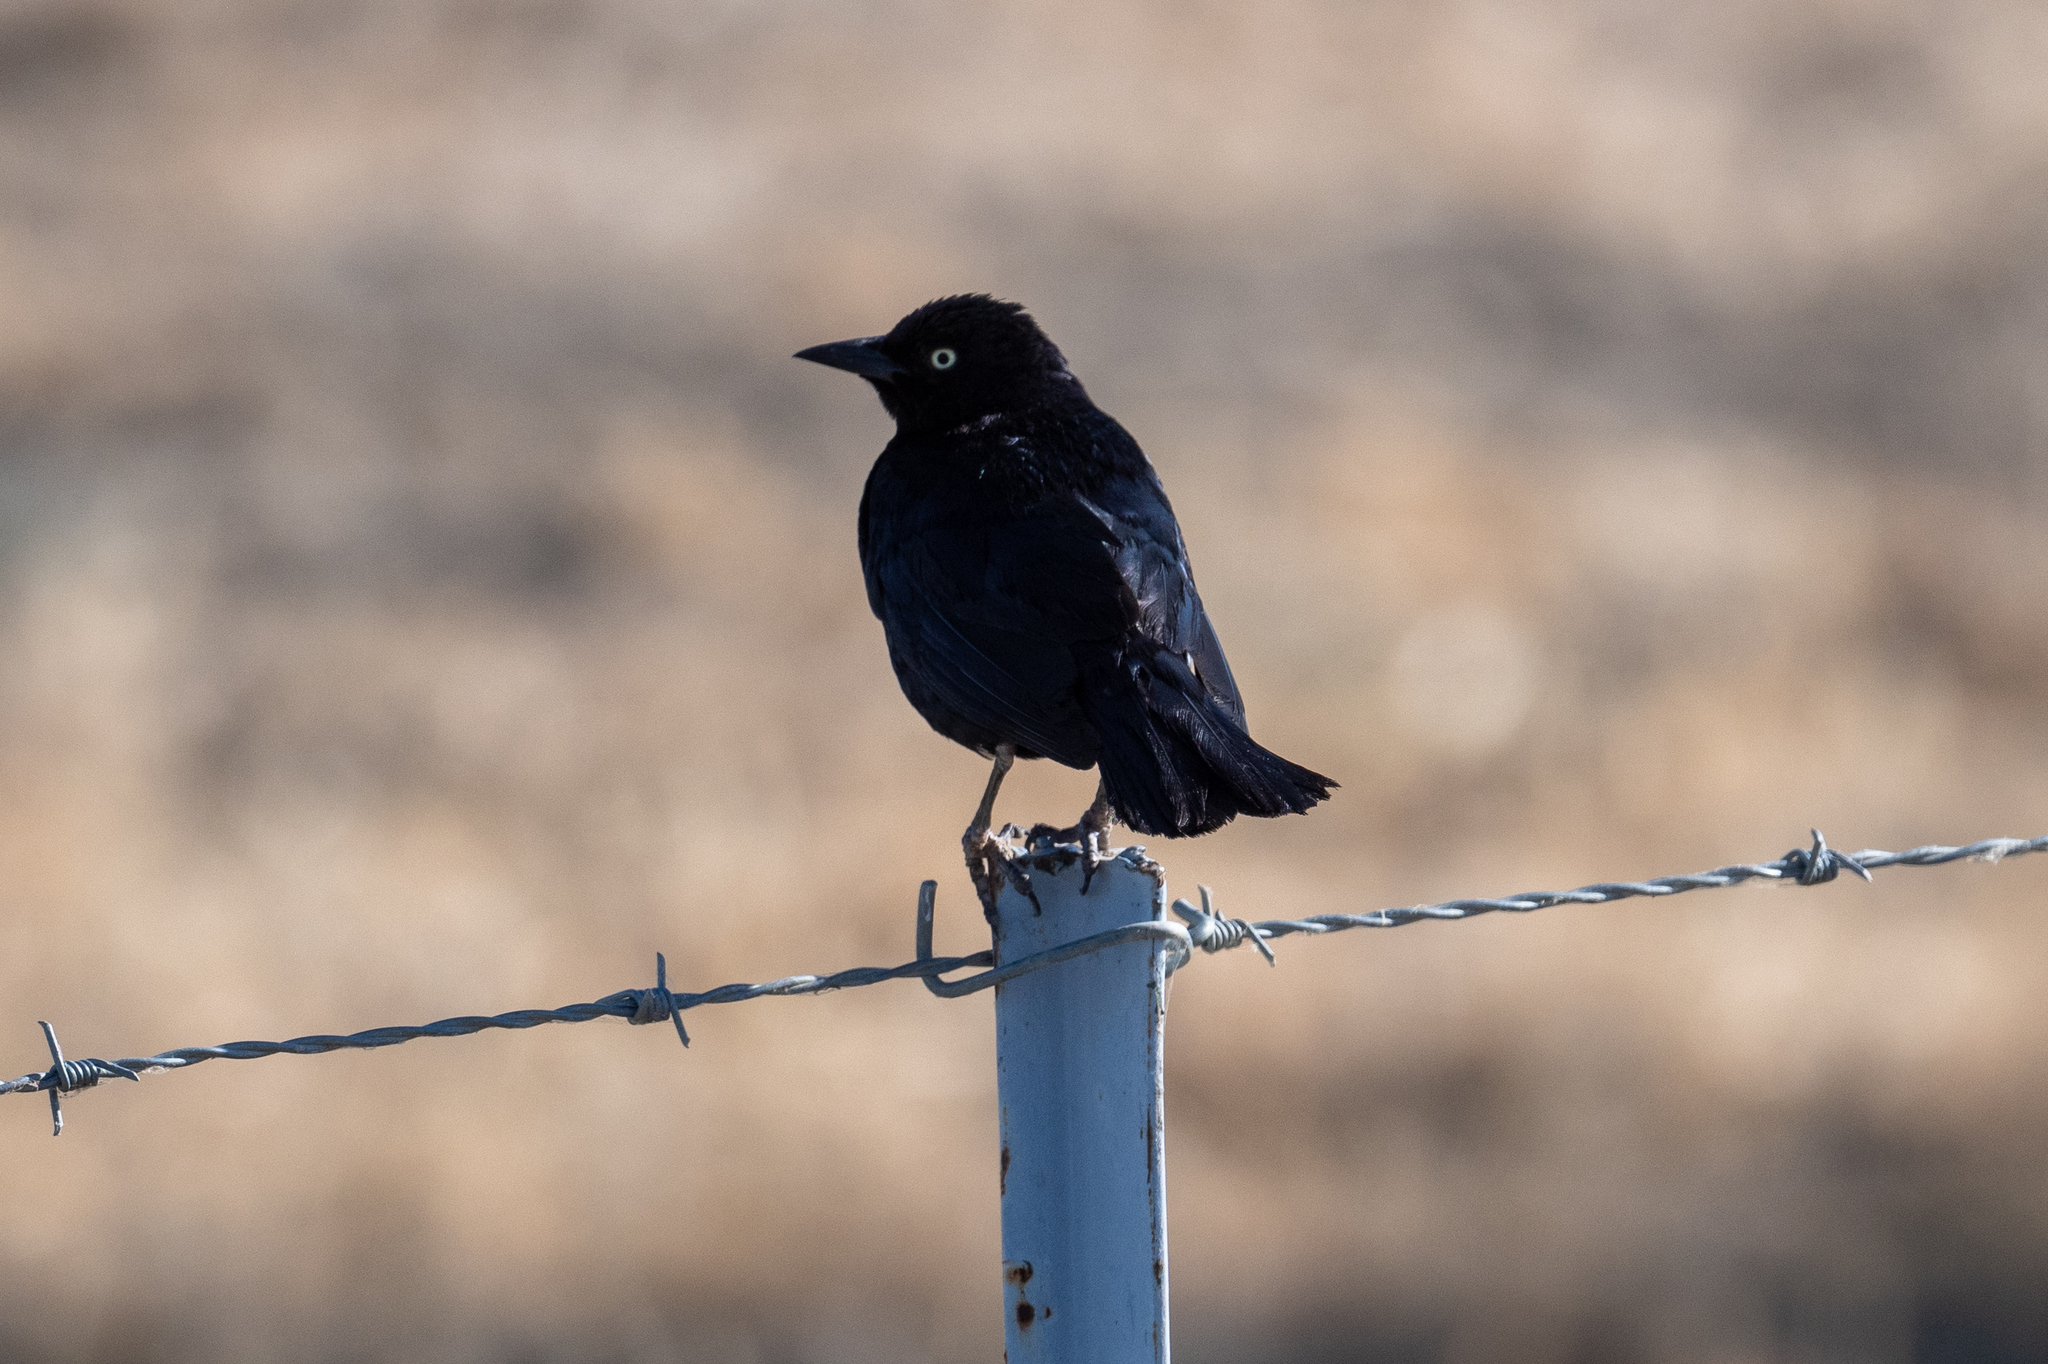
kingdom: Animalia
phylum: Chordata
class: Aves
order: Passeriformes
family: Icteridae
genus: Euphagus
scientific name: Euphagus cyanocephalus
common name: Brewer's blackbird
